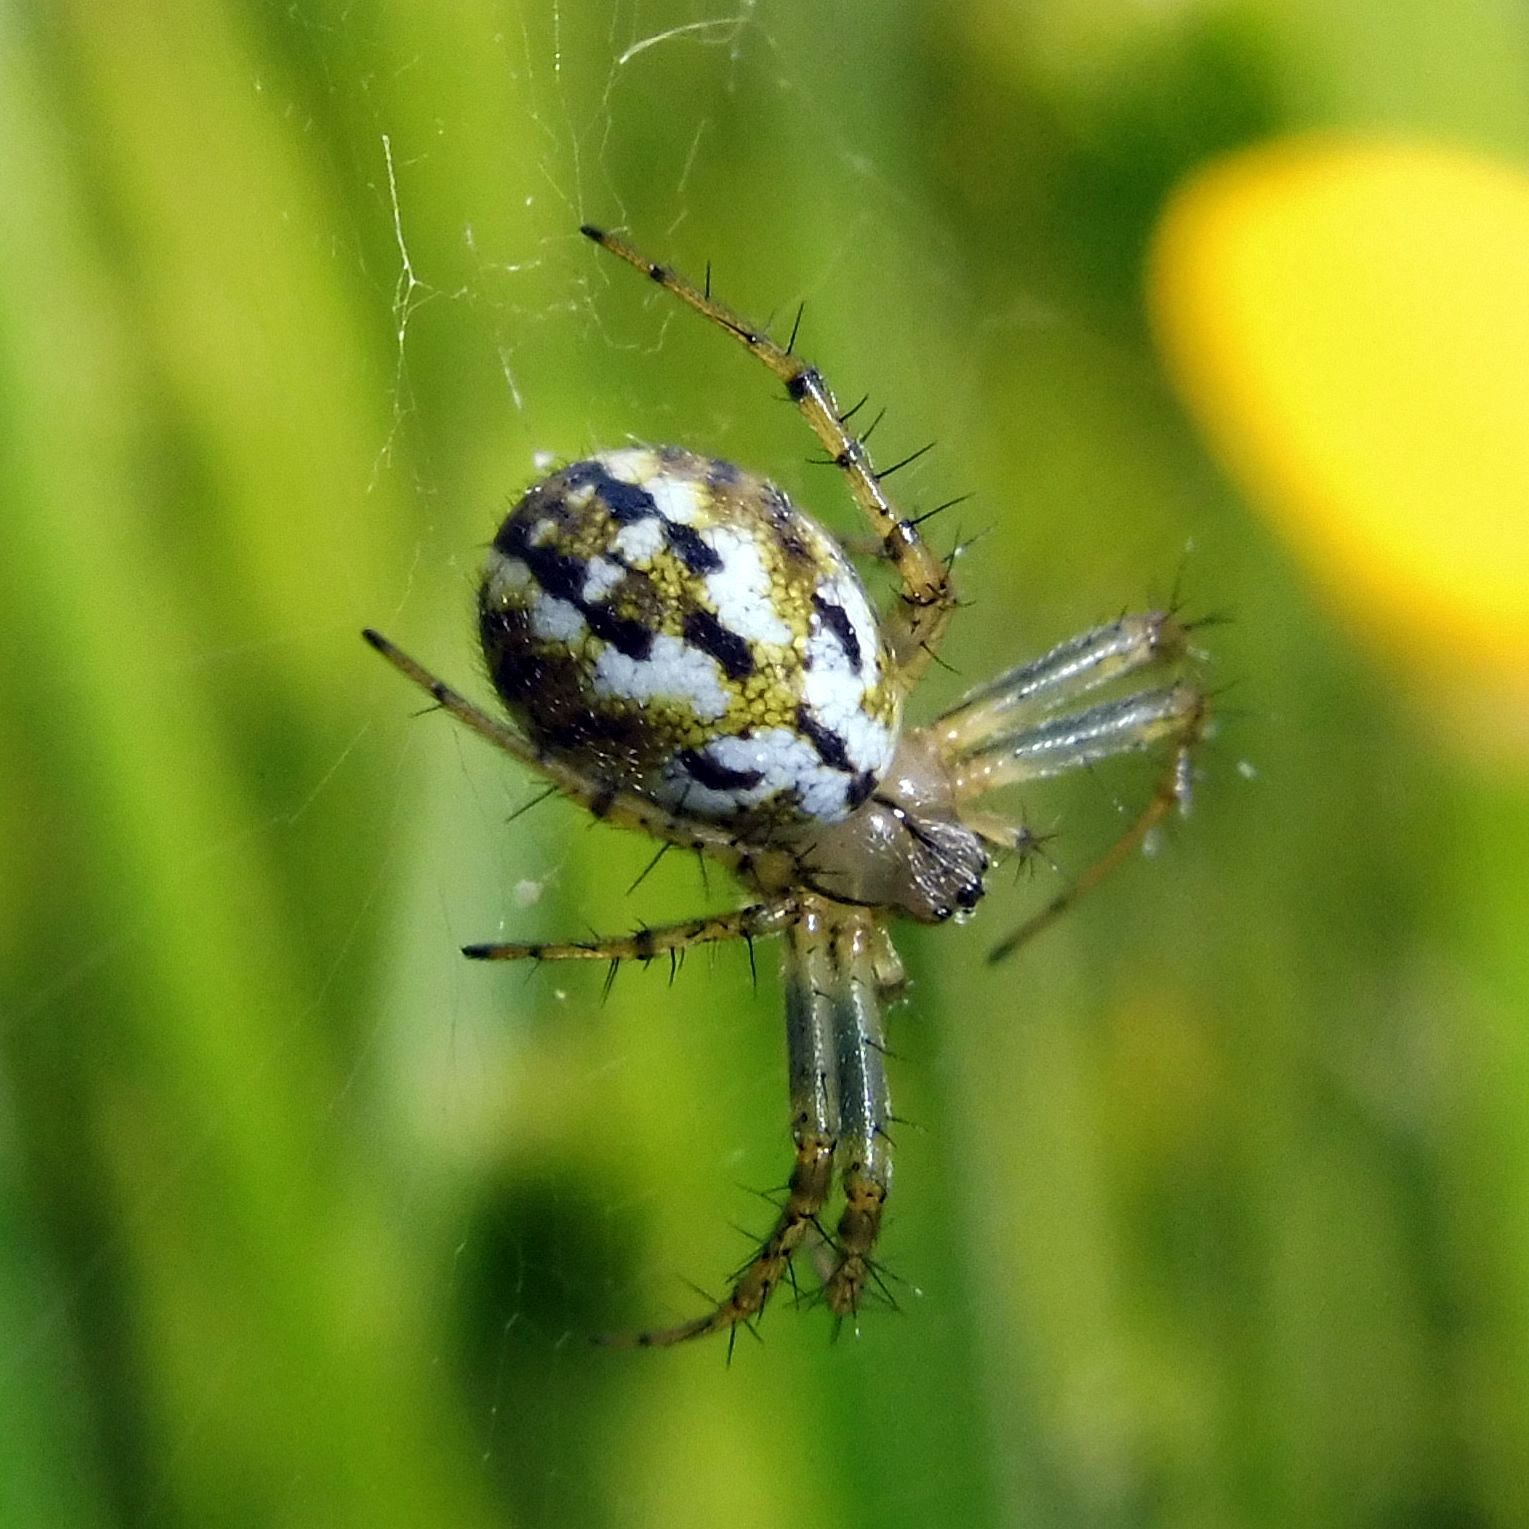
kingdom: Animalia
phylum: Arthropoda
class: Arachnida
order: Araneae
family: Araneidae
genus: Mangora
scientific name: Mangora acalypha
